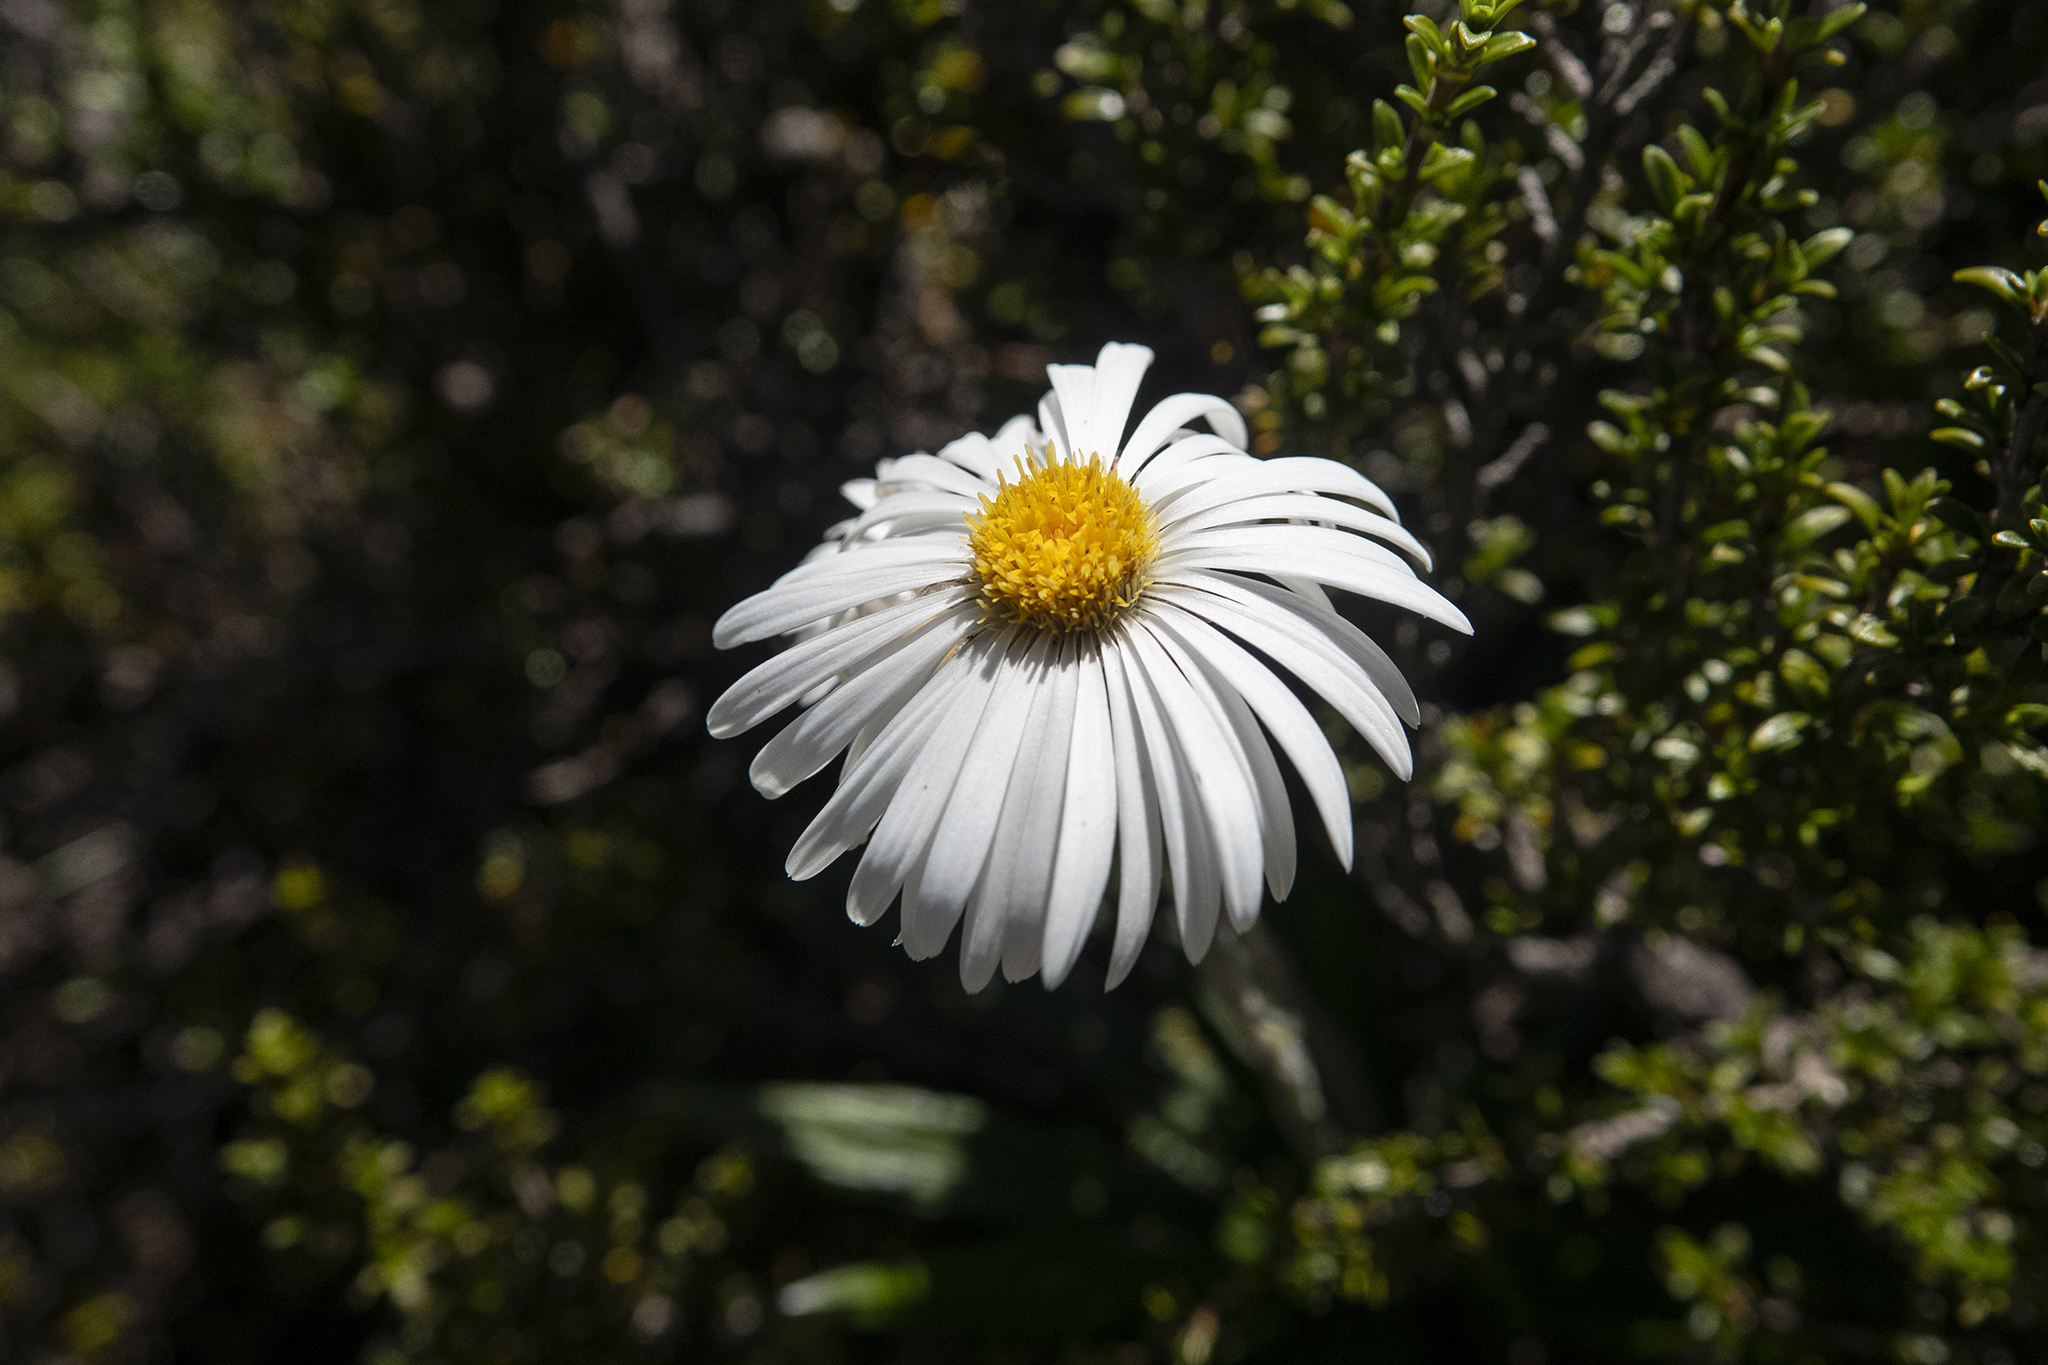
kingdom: Plantae
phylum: Tracheophyta
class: Magnoliopsida
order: Asterales
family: Asteraceae
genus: Celmisia
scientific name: Celmisia spectabilis
